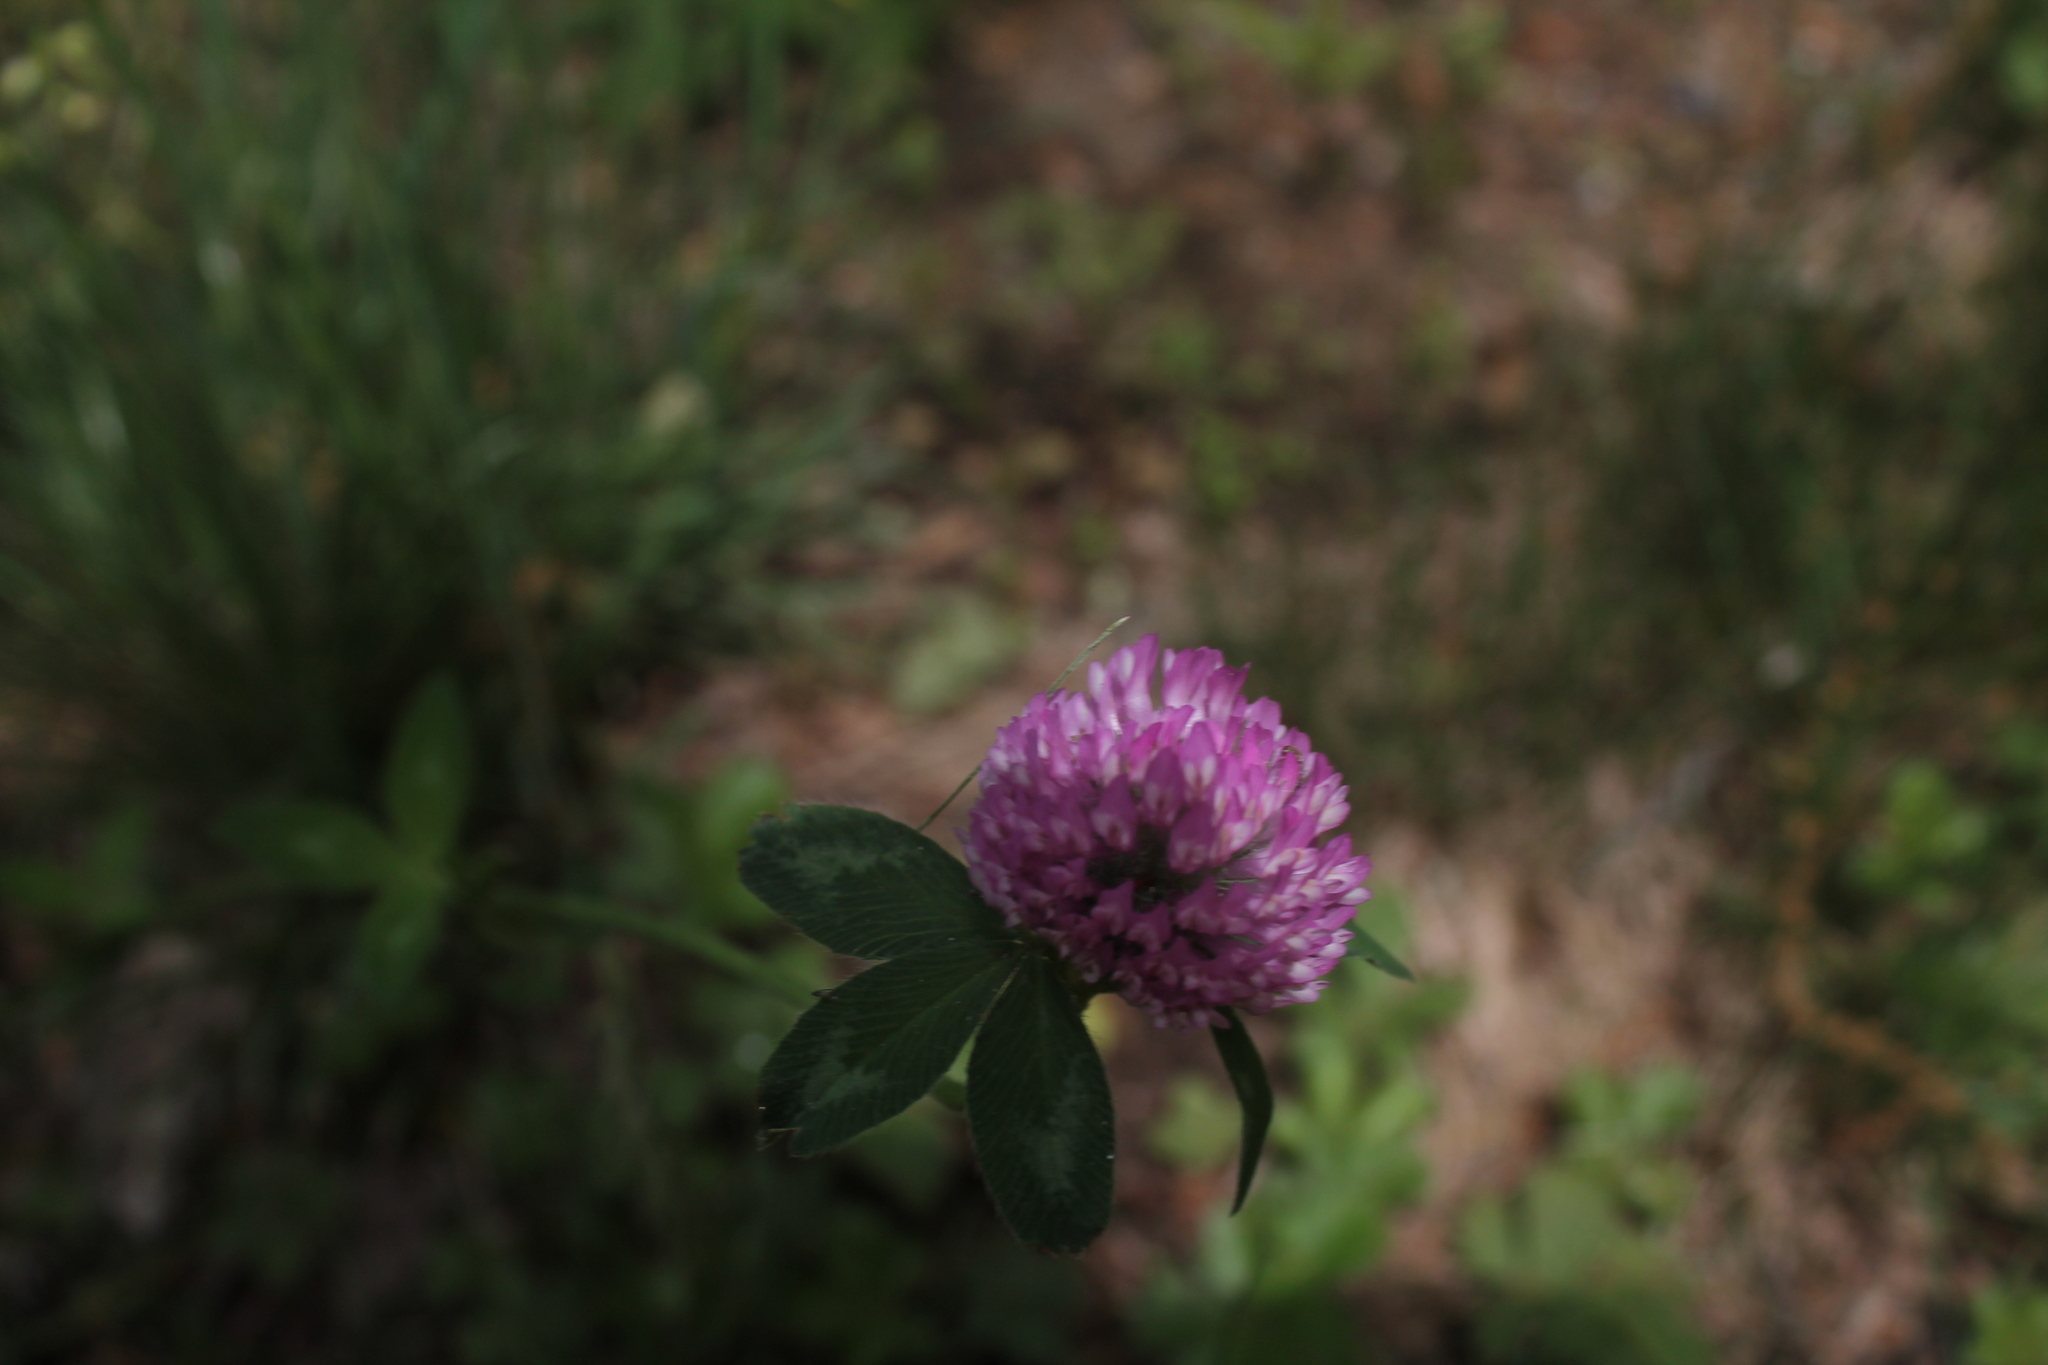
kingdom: Plantae
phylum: Tracheophyta
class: Magnoliopsida
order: Fabales
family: Fabaceae
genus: Trifolium
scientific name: Trifolium pratense
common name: Red clover
